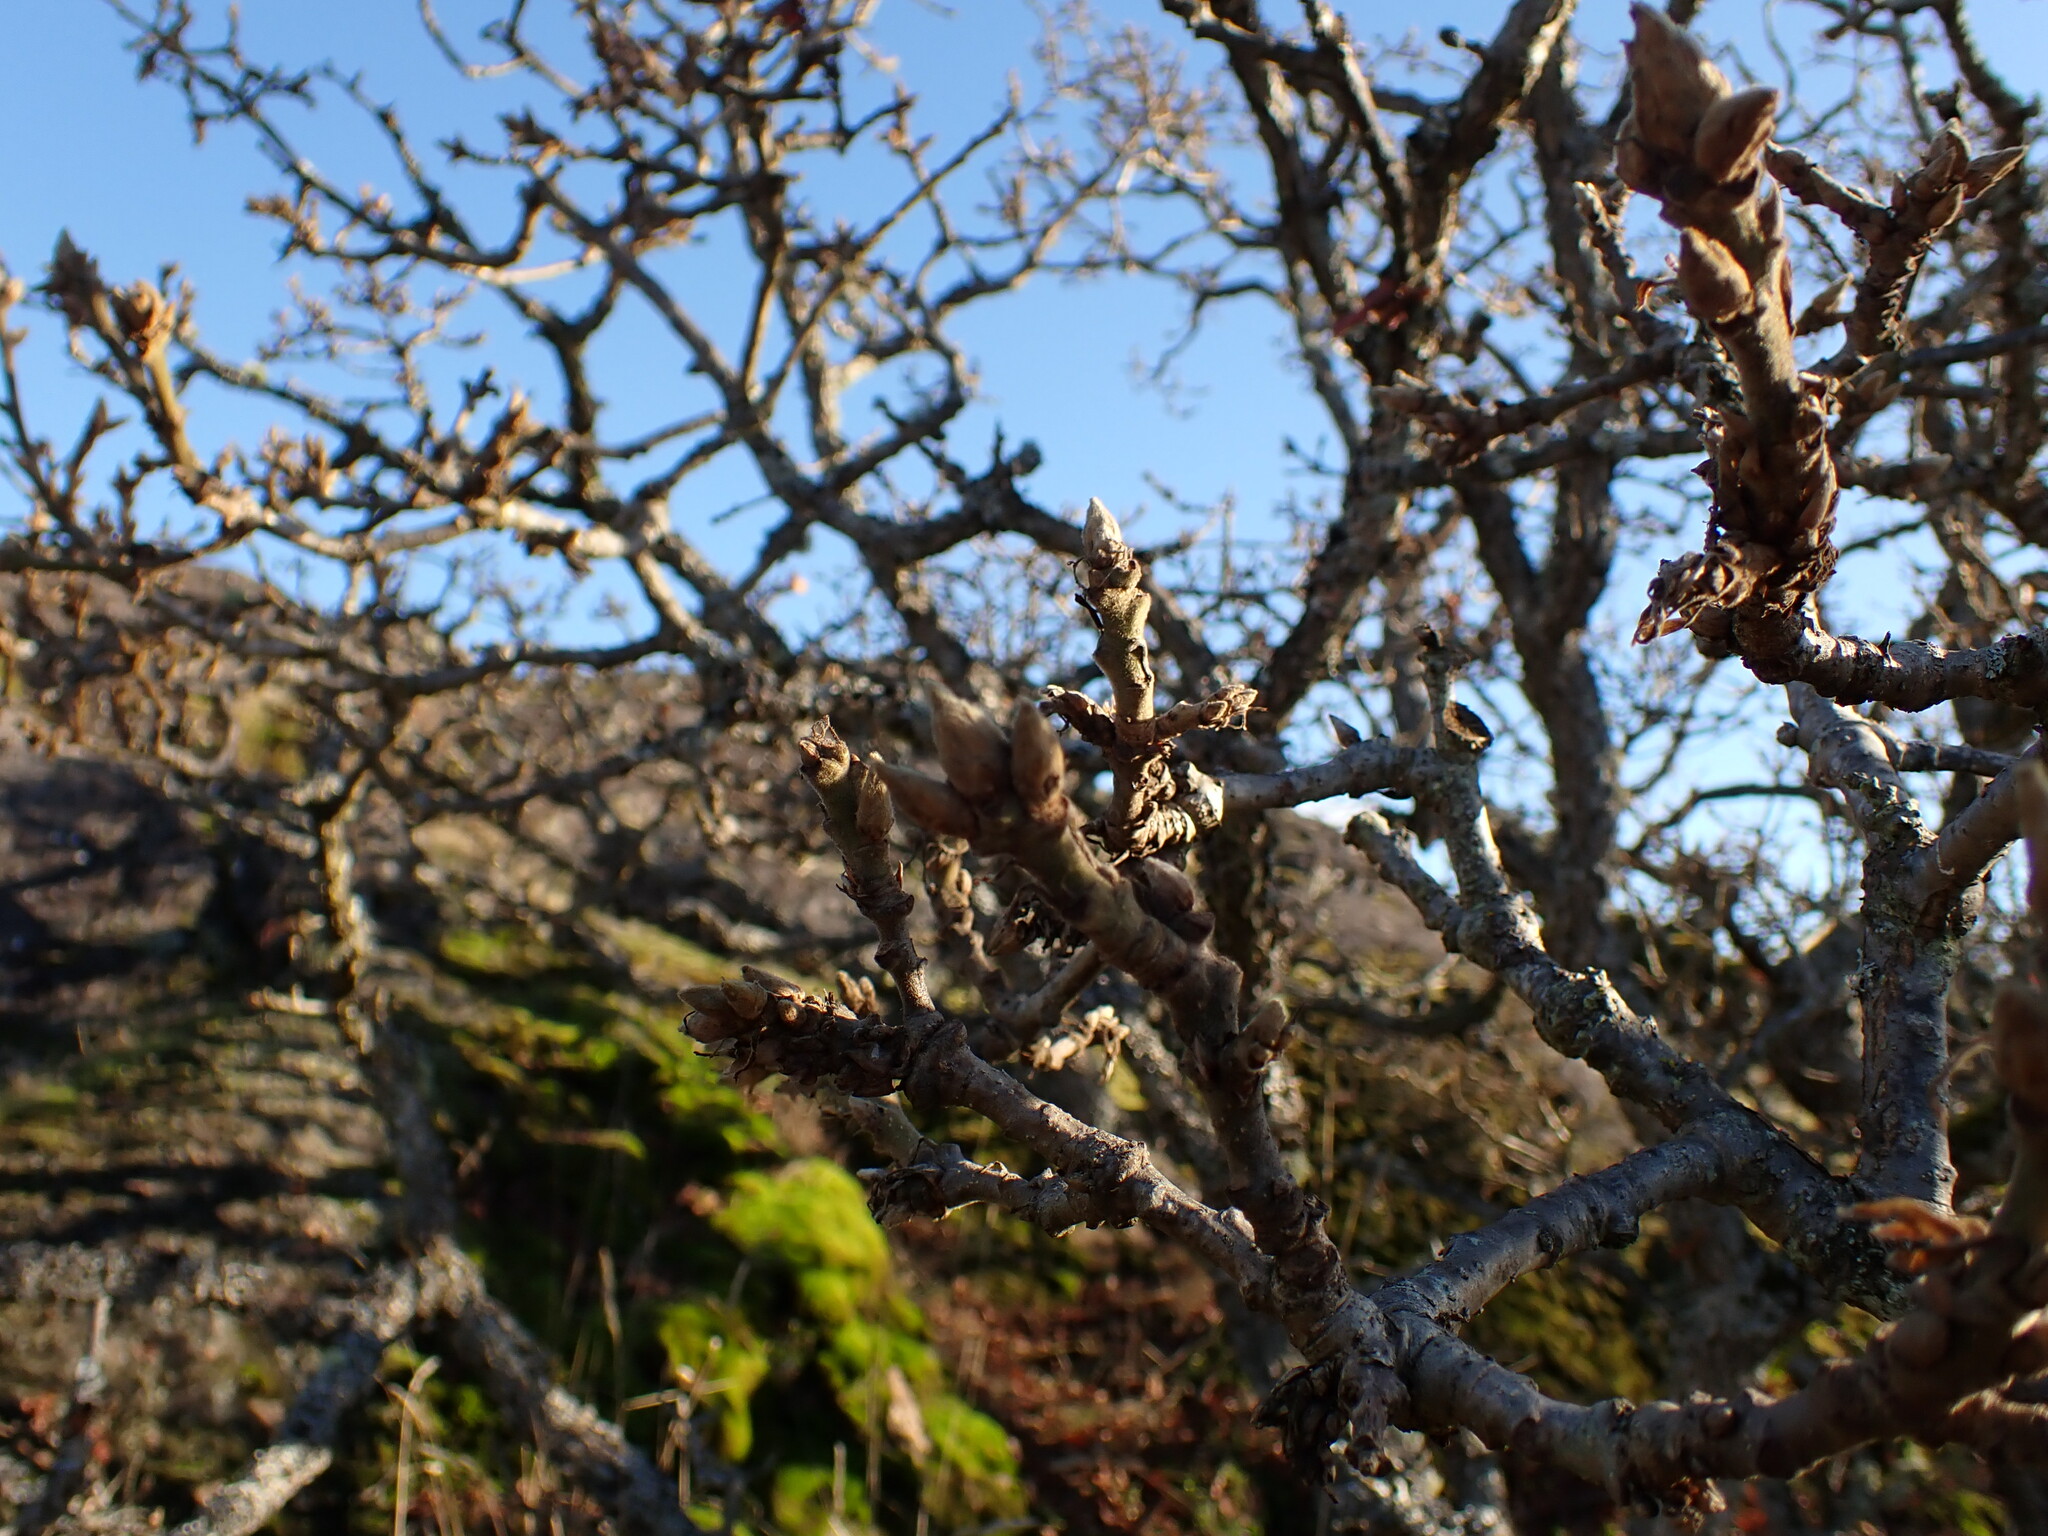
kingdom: Plantae
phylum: Tracheophyta
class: Magnoliopsida
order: Fagales
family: Fagaceae
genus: Quercus
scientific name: Quercus garryana
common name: Garry oak
